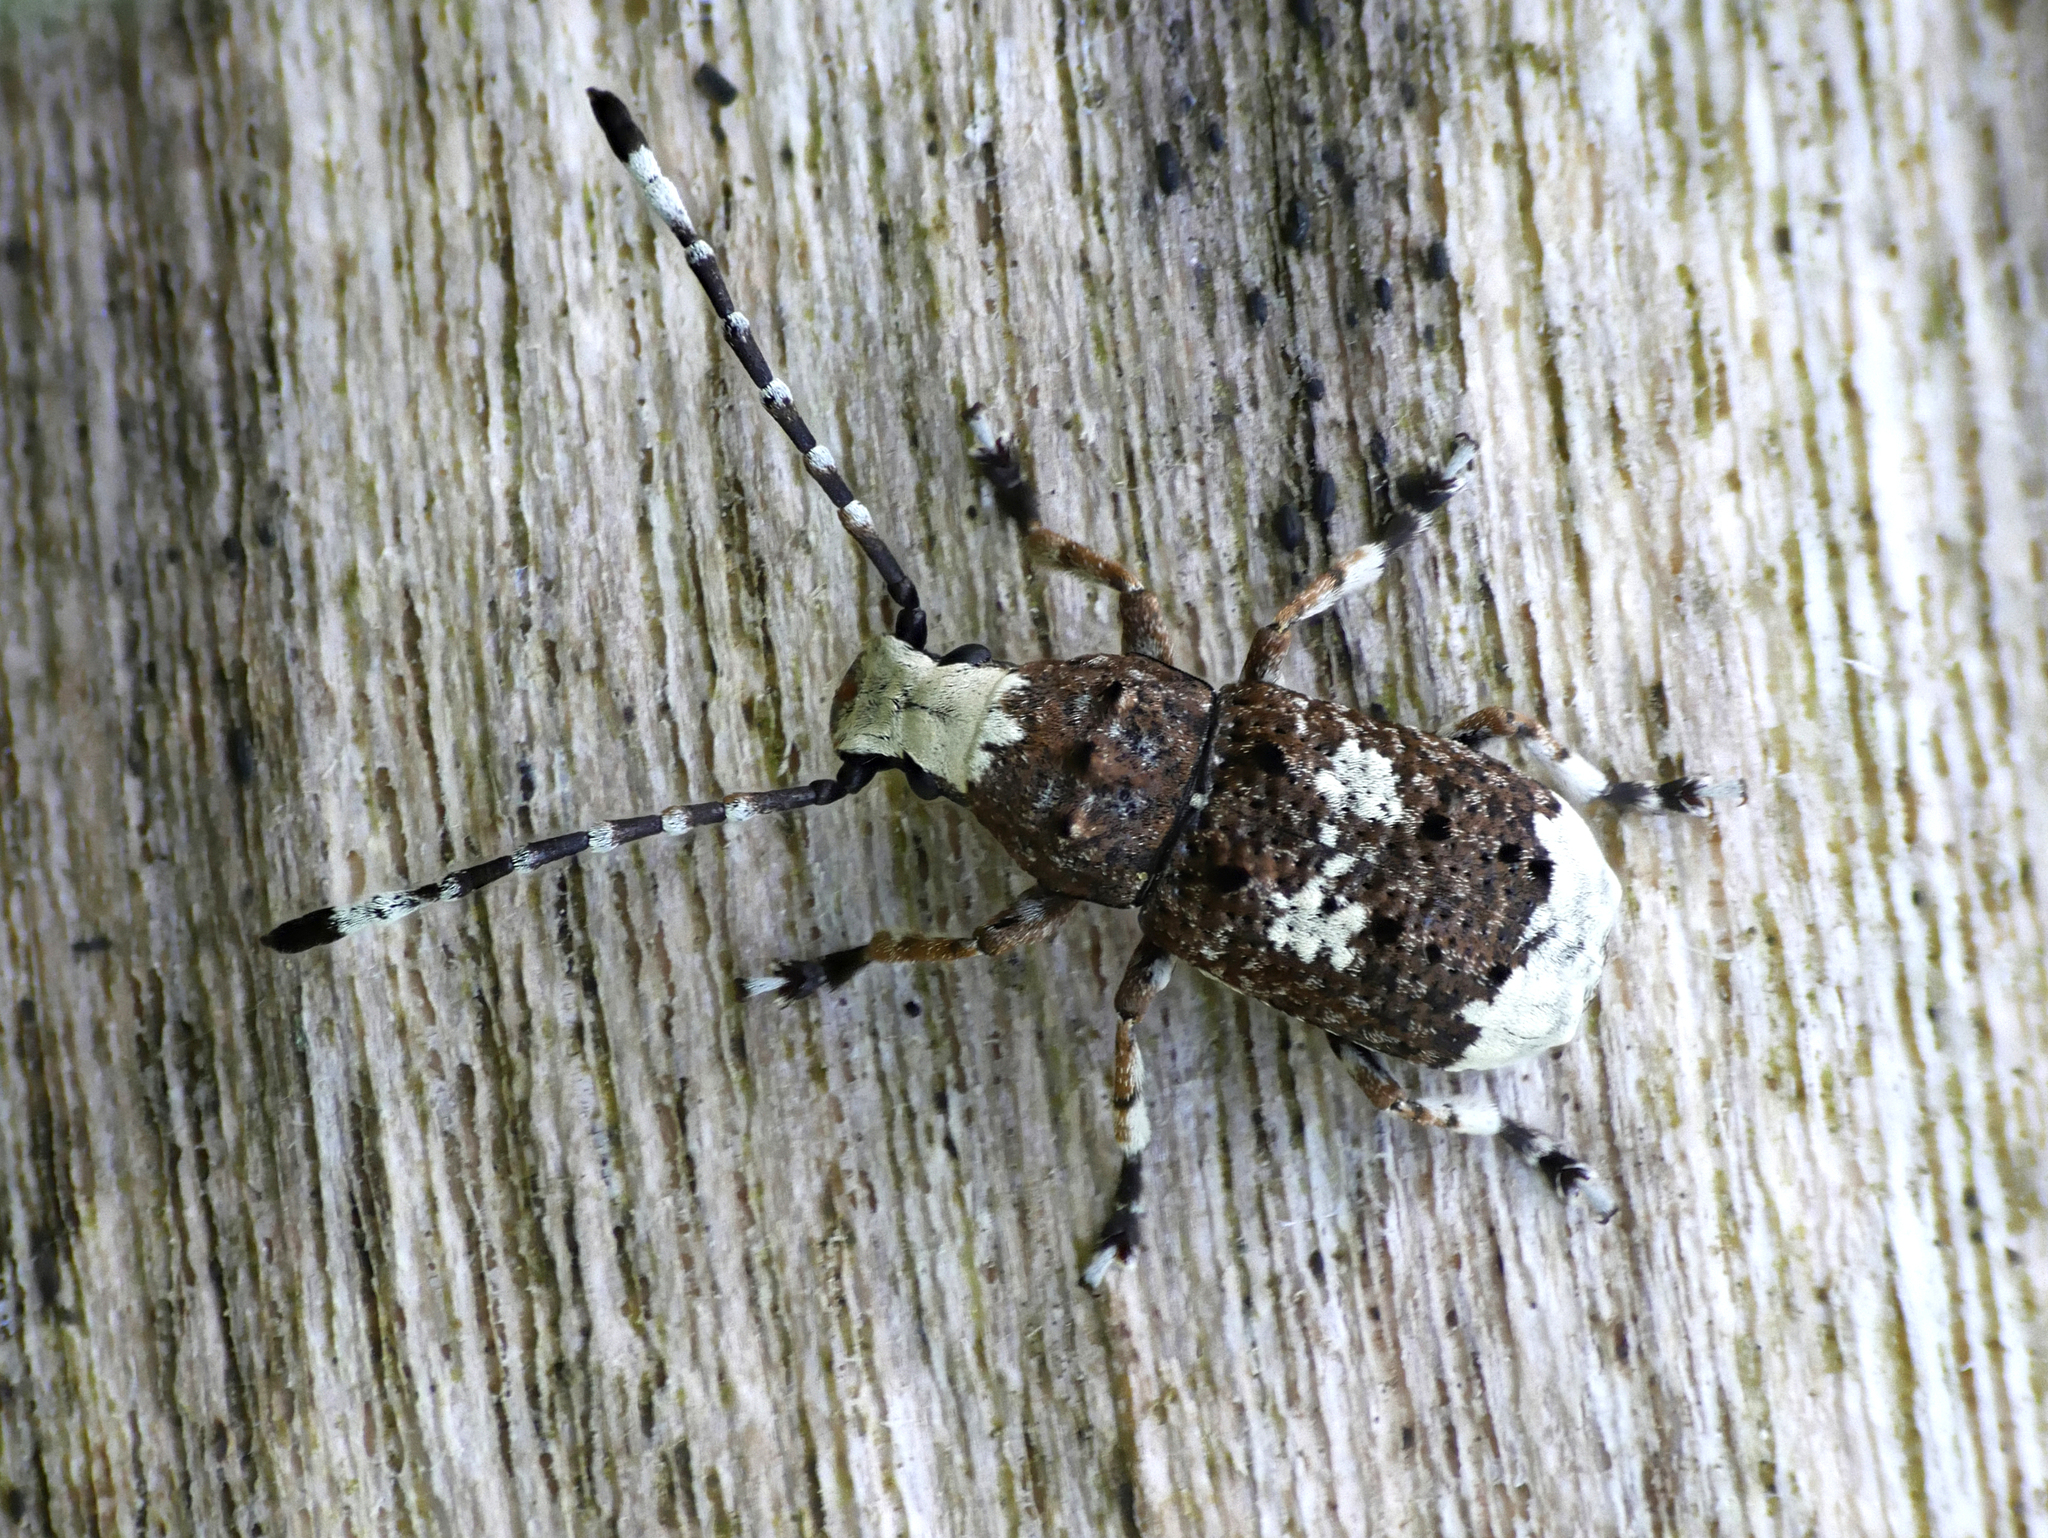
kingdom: Animalia
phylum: Arthropoda
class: Insecta
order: Coleoptera
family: Anthribidae
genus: Platystomos
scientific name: Platystomos albinus
